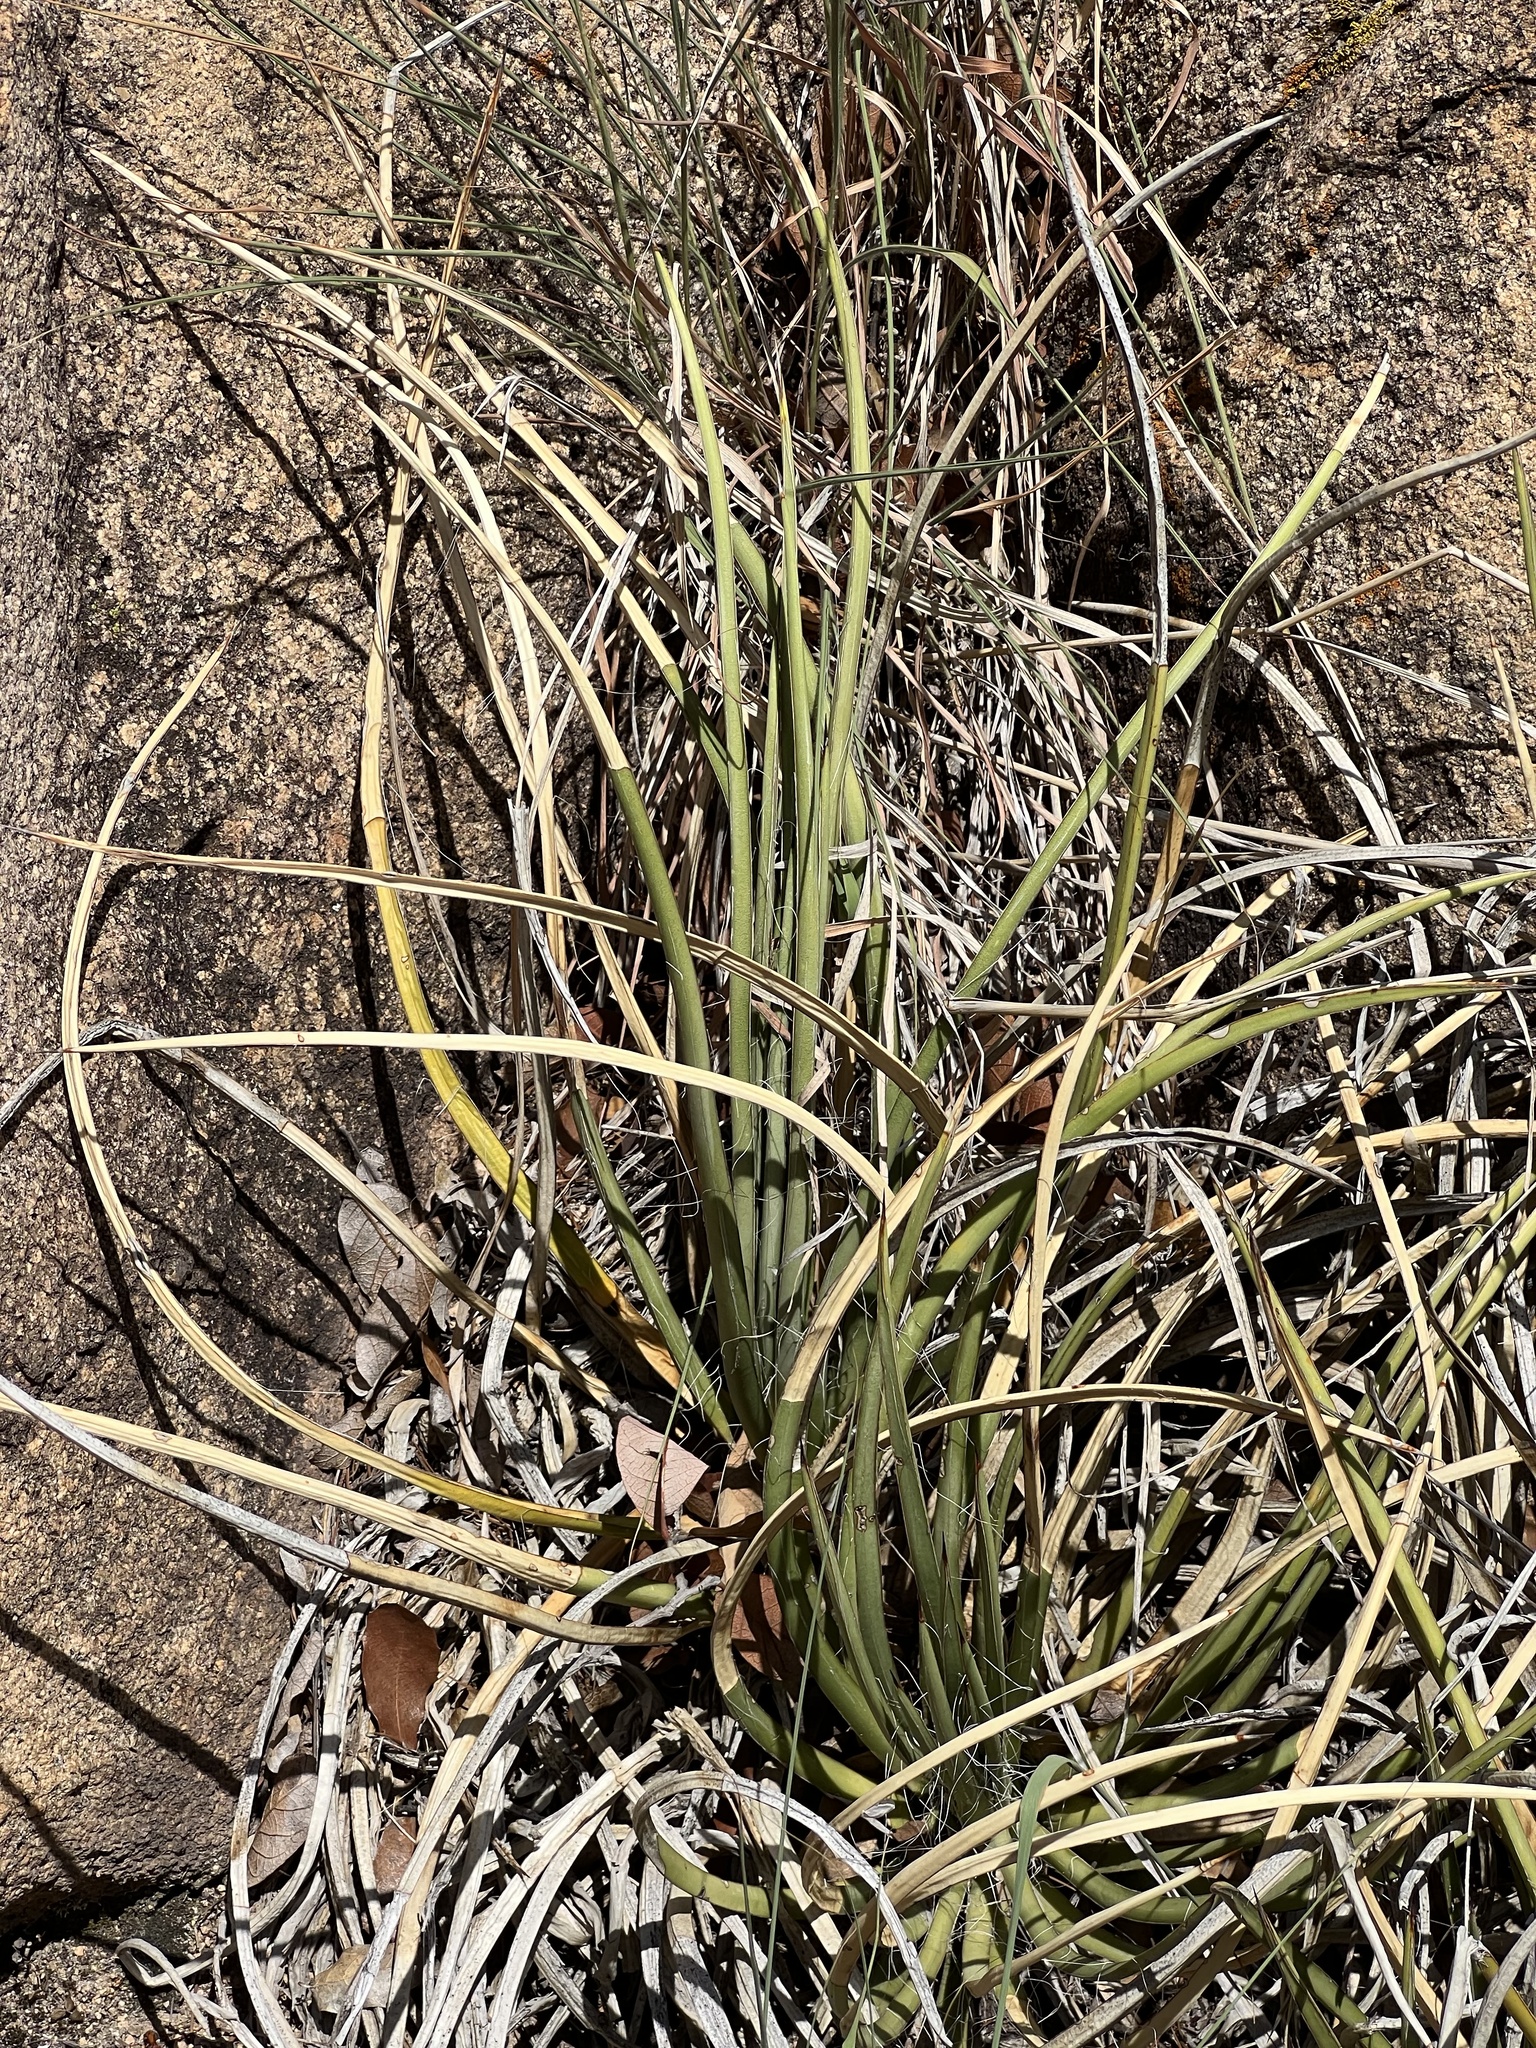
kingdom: Plantae
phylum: Tracheophyta
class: Liliopsida
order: Asparagales
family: Asparagaceae
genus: Agave
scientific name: Agave schottii
